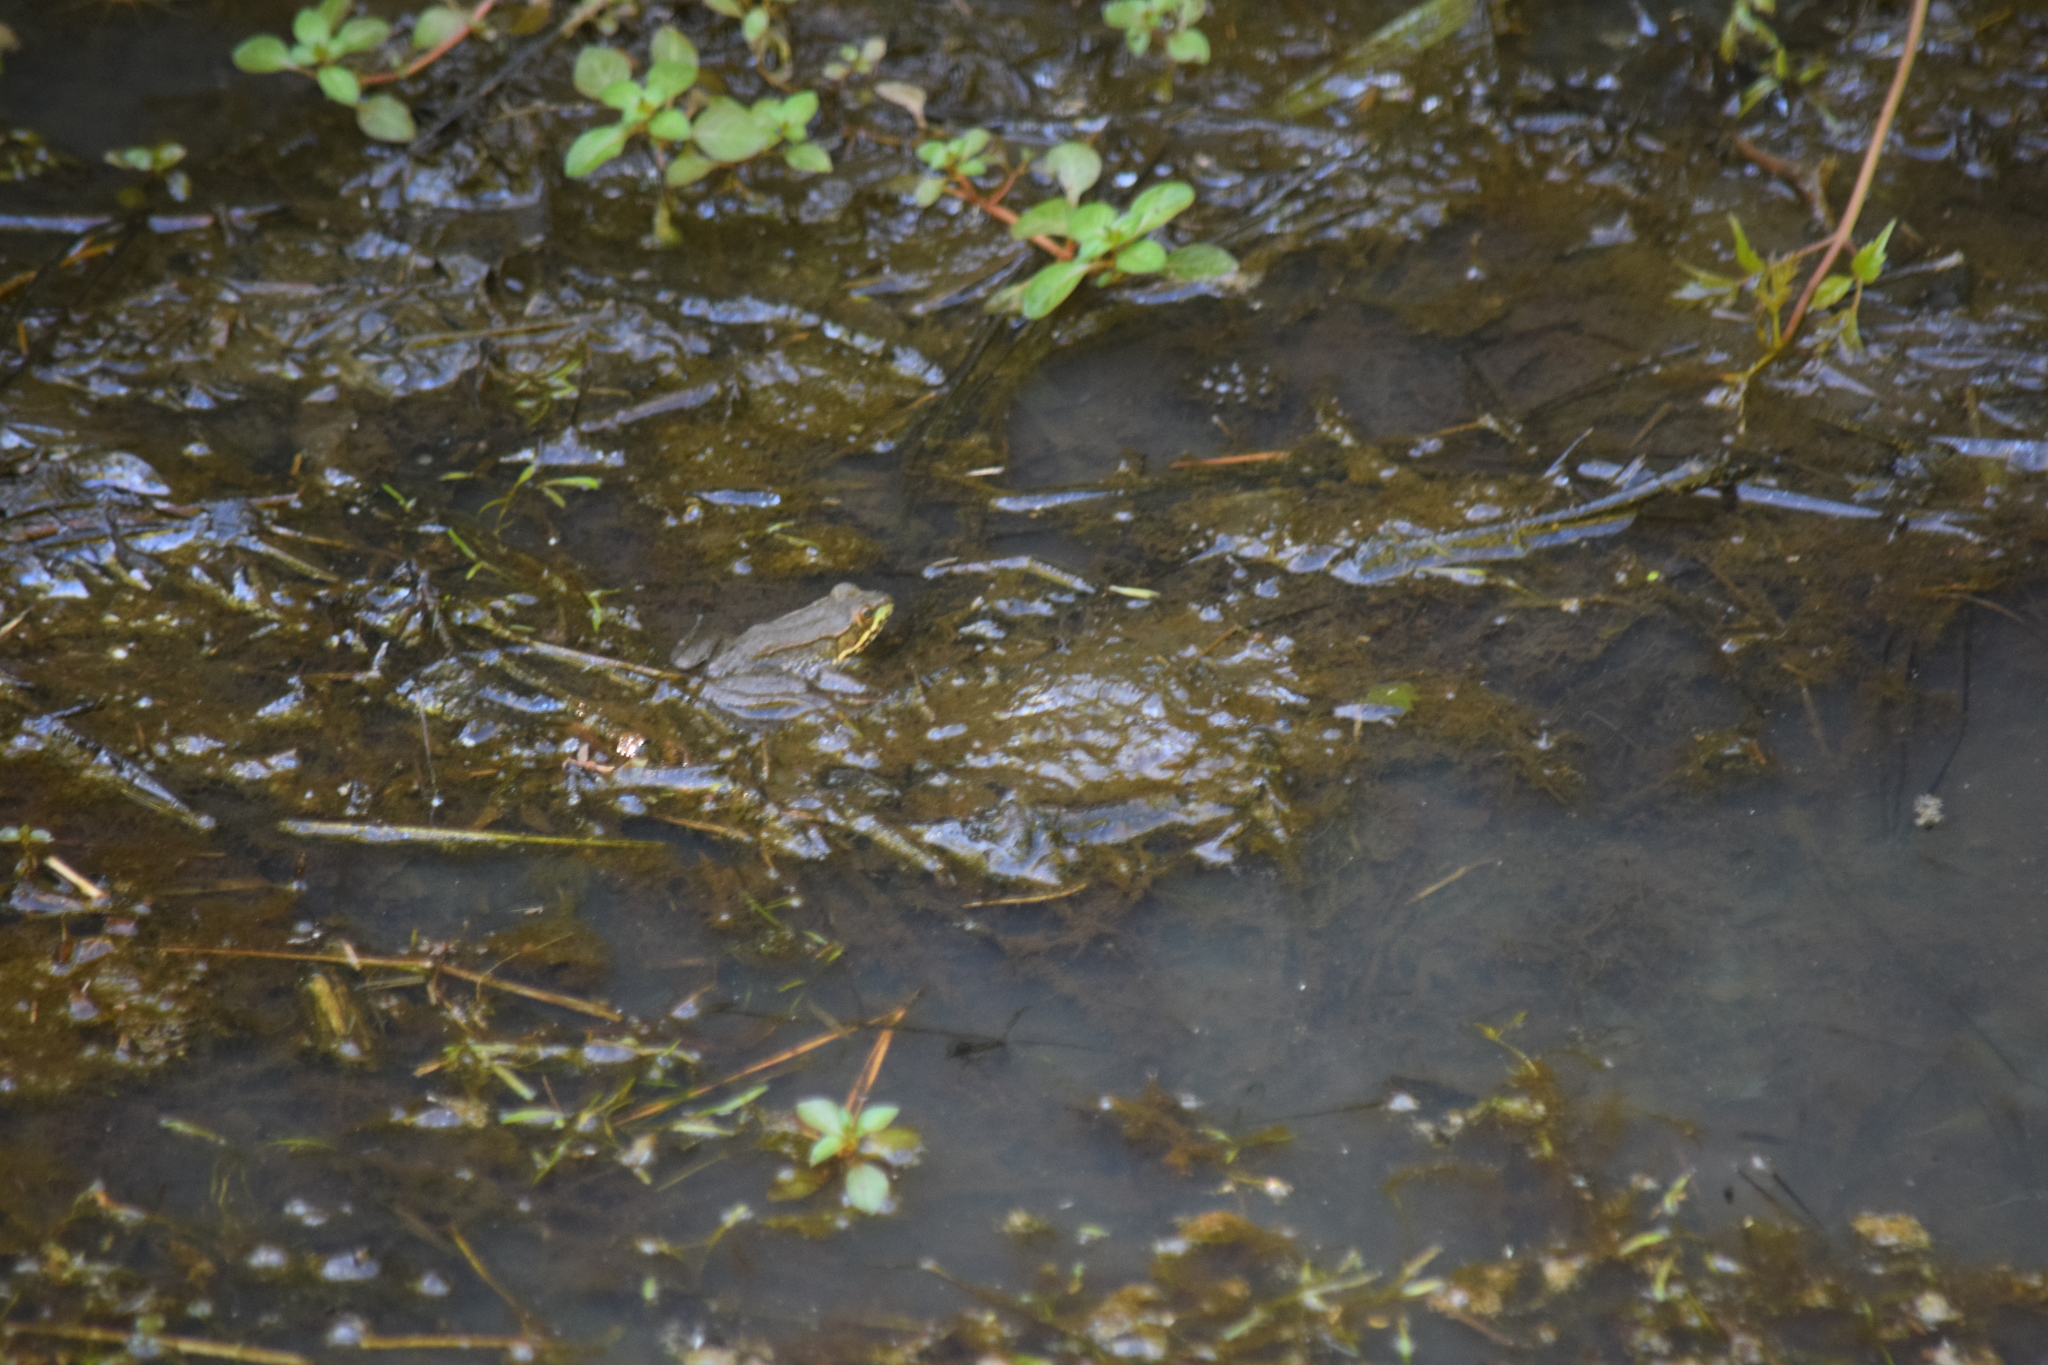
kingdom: Animalia
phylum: Chordata
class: Amphibia
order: Anura
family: Ranidae
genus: Lithobates
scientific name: Lithobates clamitans
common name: Green frog
